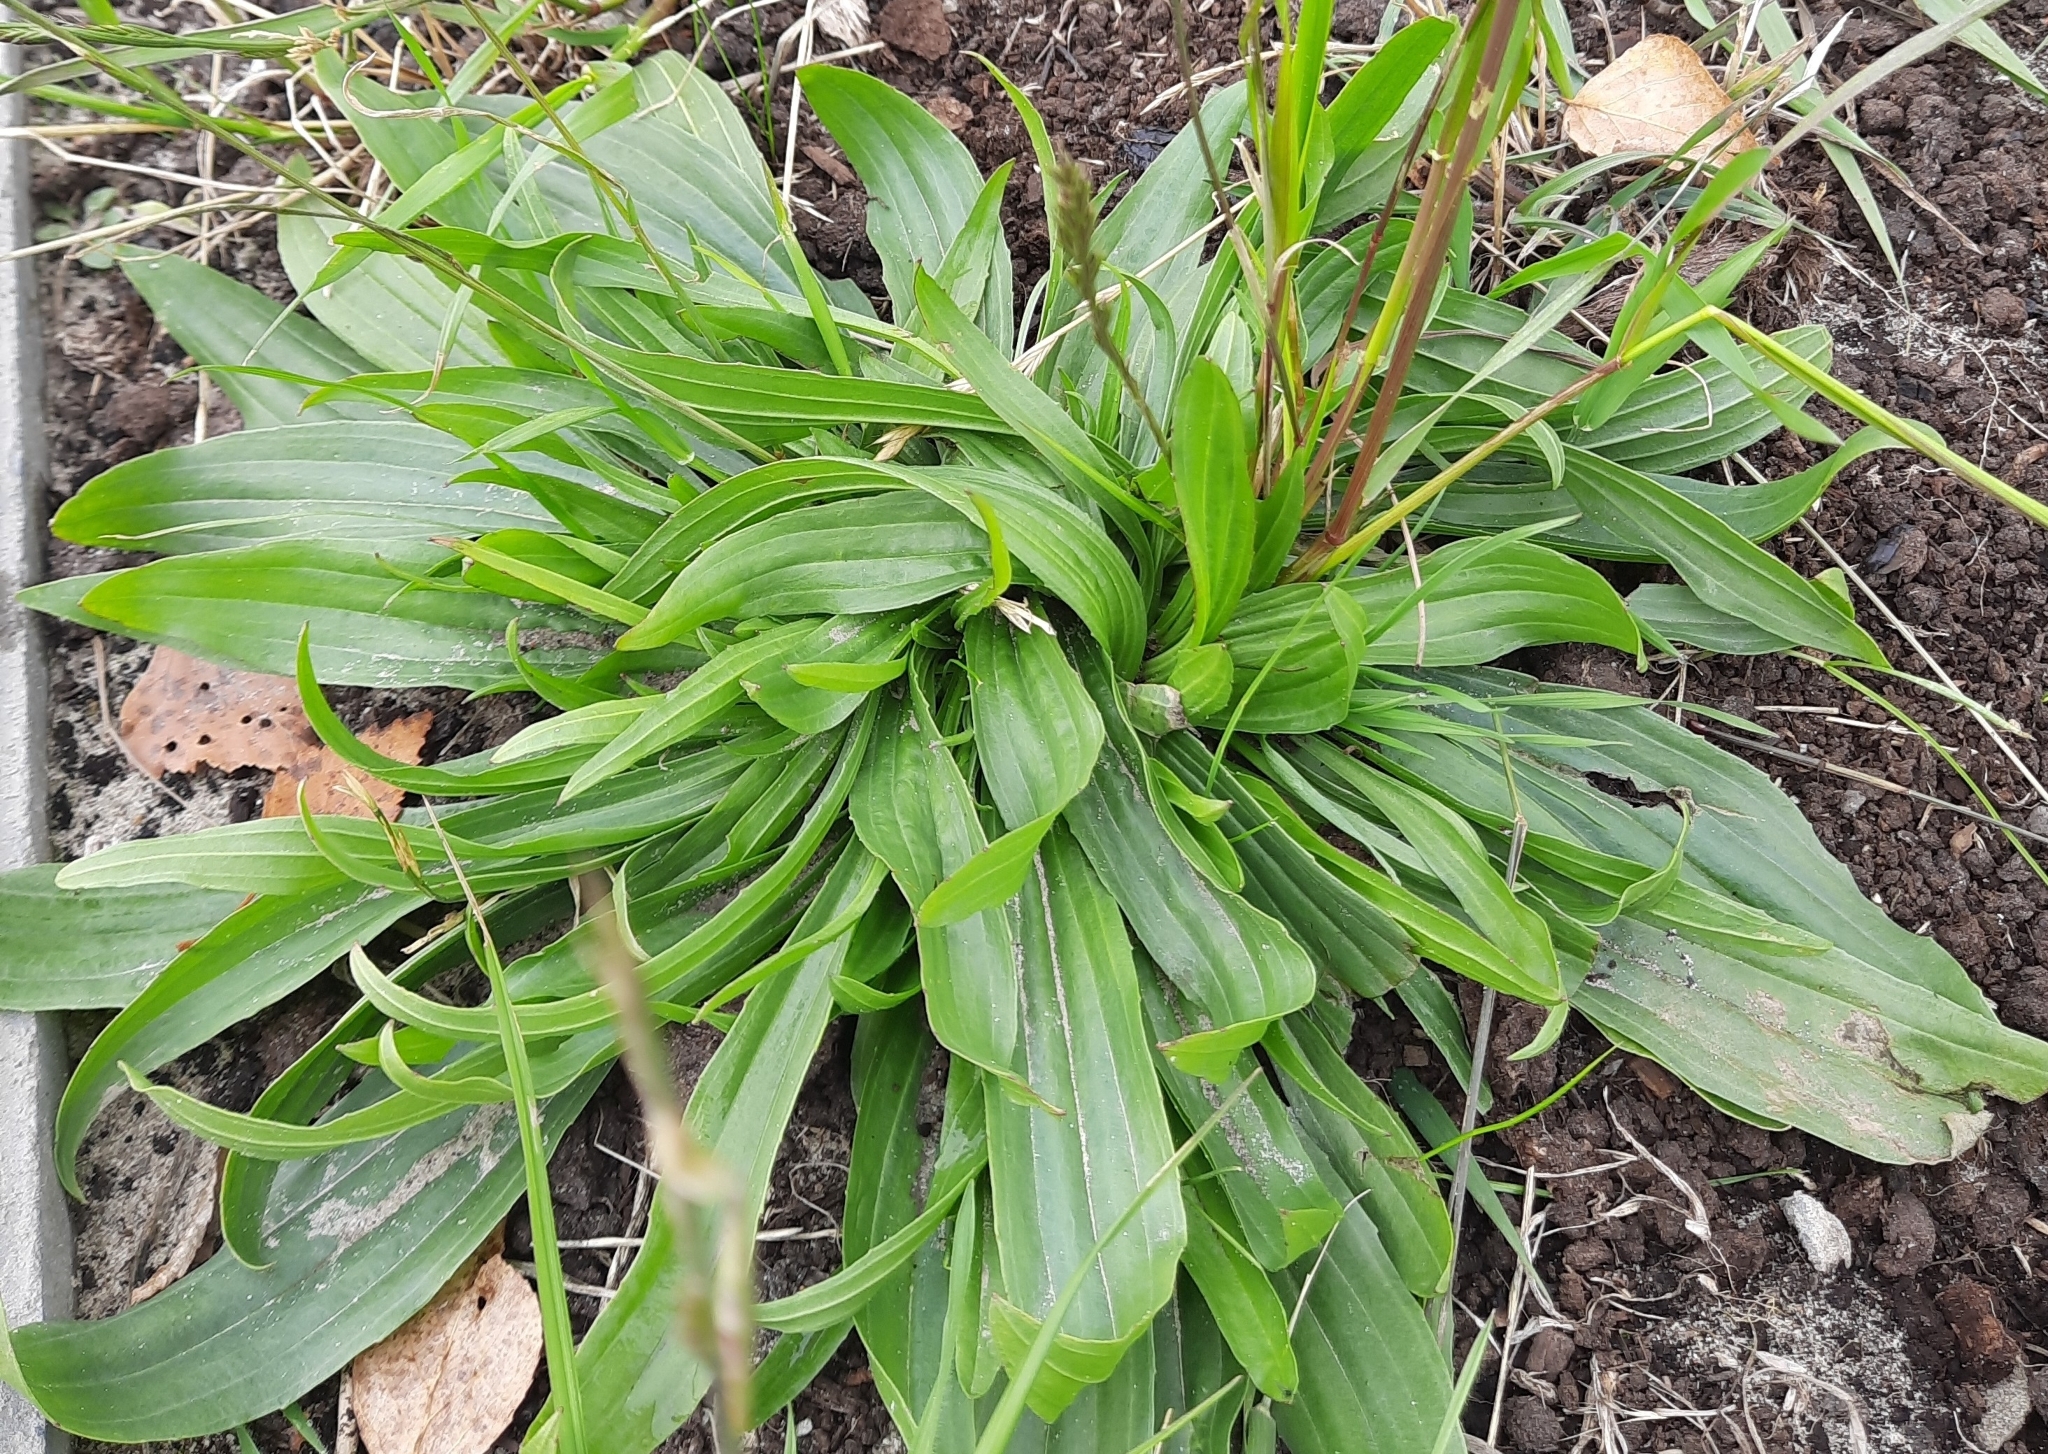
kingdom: Plantae
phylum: Tracheophyta
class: Magnoliopsida
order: Lamiales
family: Plantaginaceae
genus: Plantago
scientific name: Plantago lanceolata
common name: Ribwort plantain
